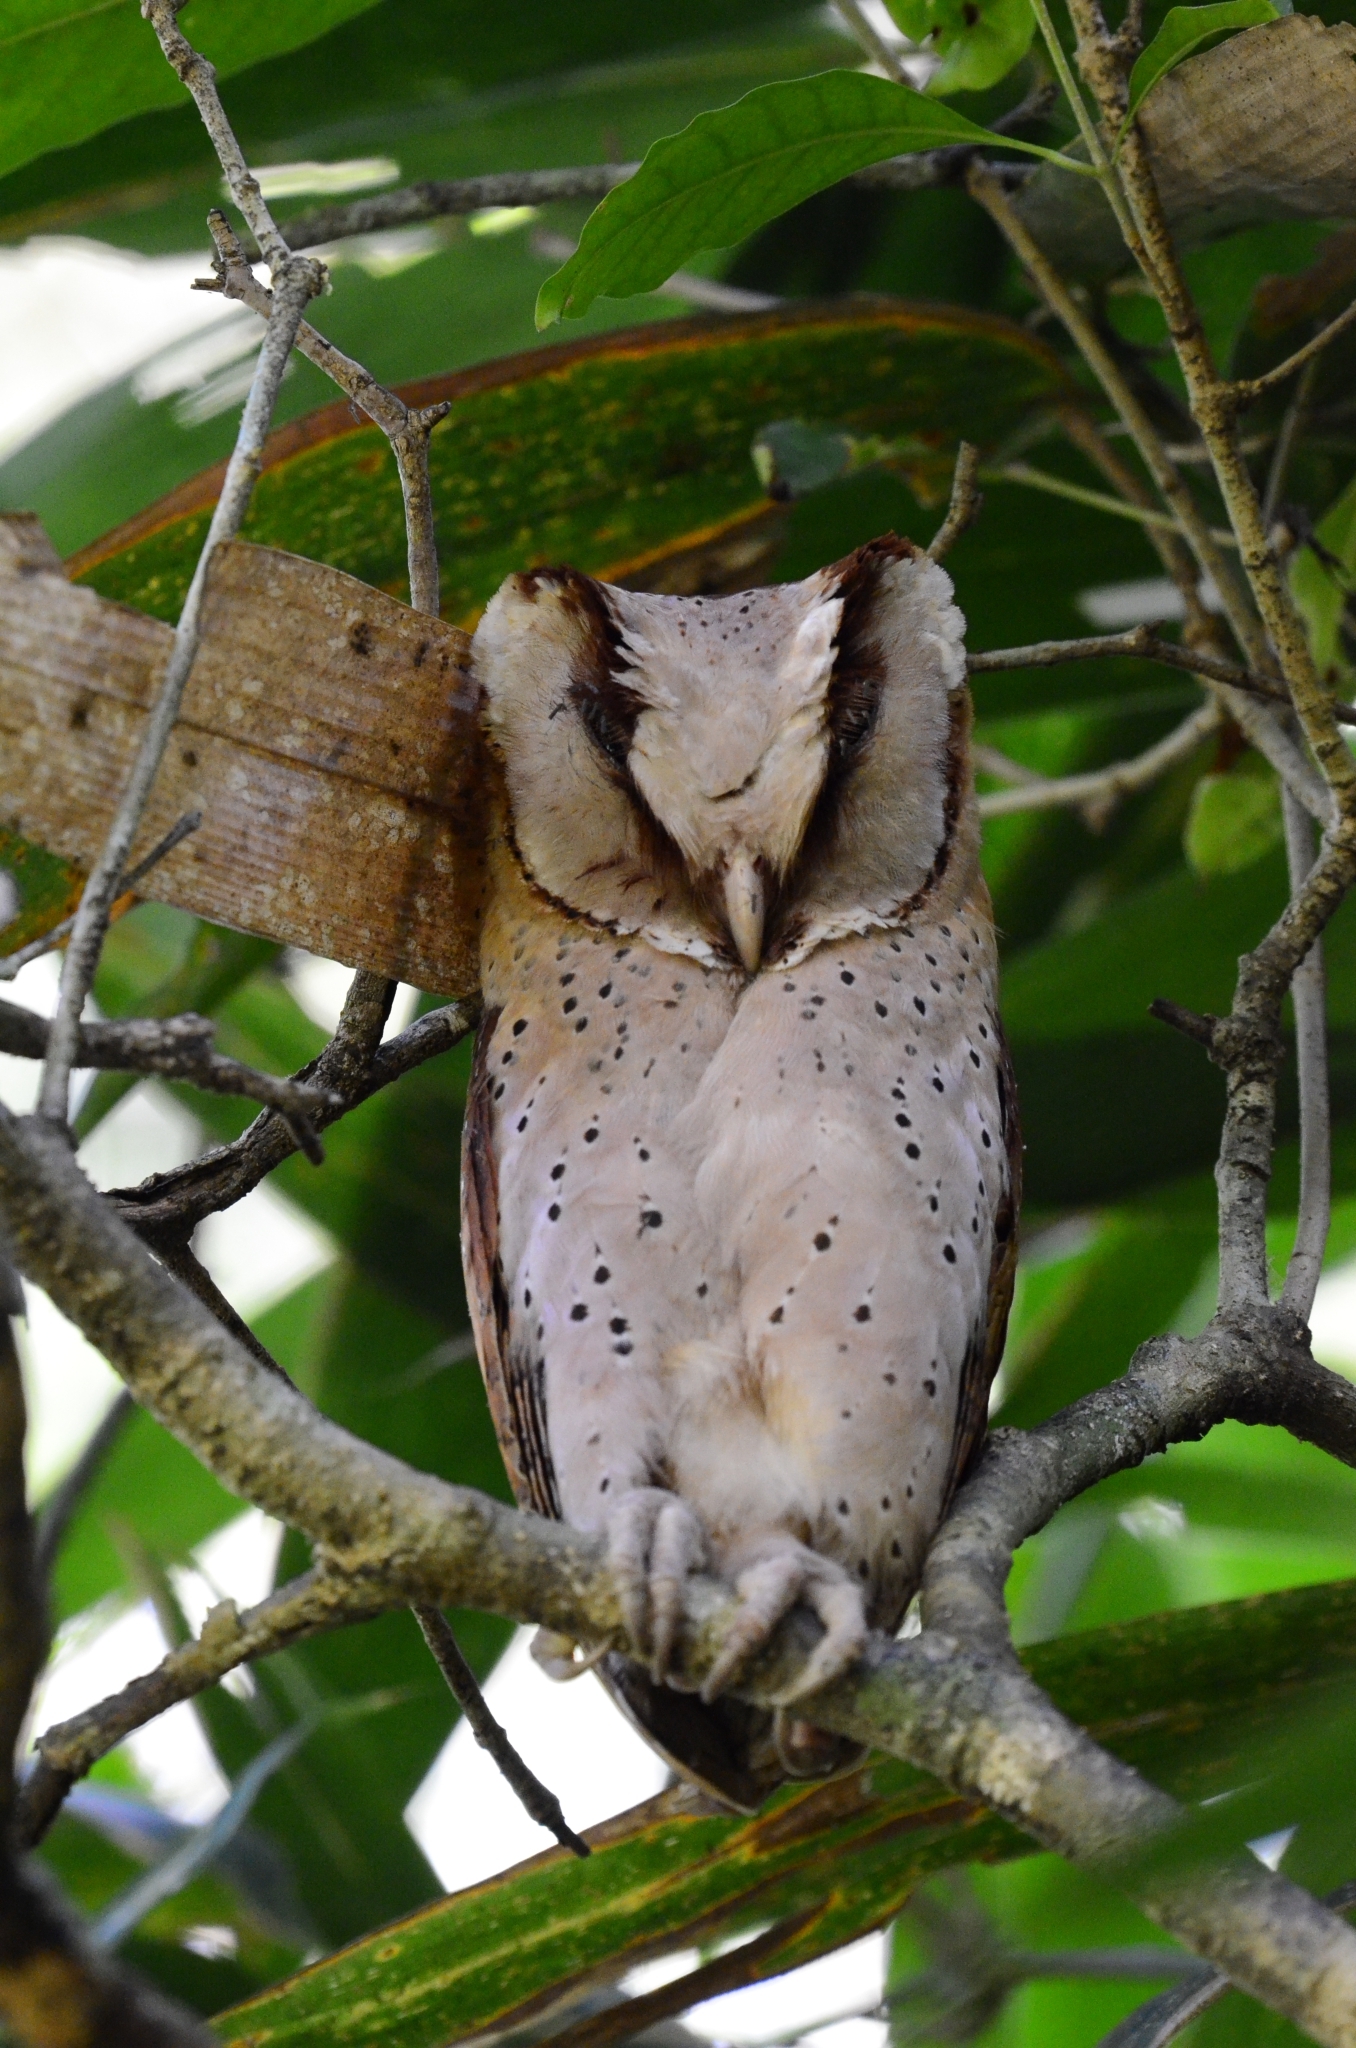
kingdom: Animalia
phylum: Chordata
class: Aves
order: Strigiformes
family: Tytonidae
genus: Phodilus
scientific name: Phodilus assimilis
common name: Sri lanka bay-owl
